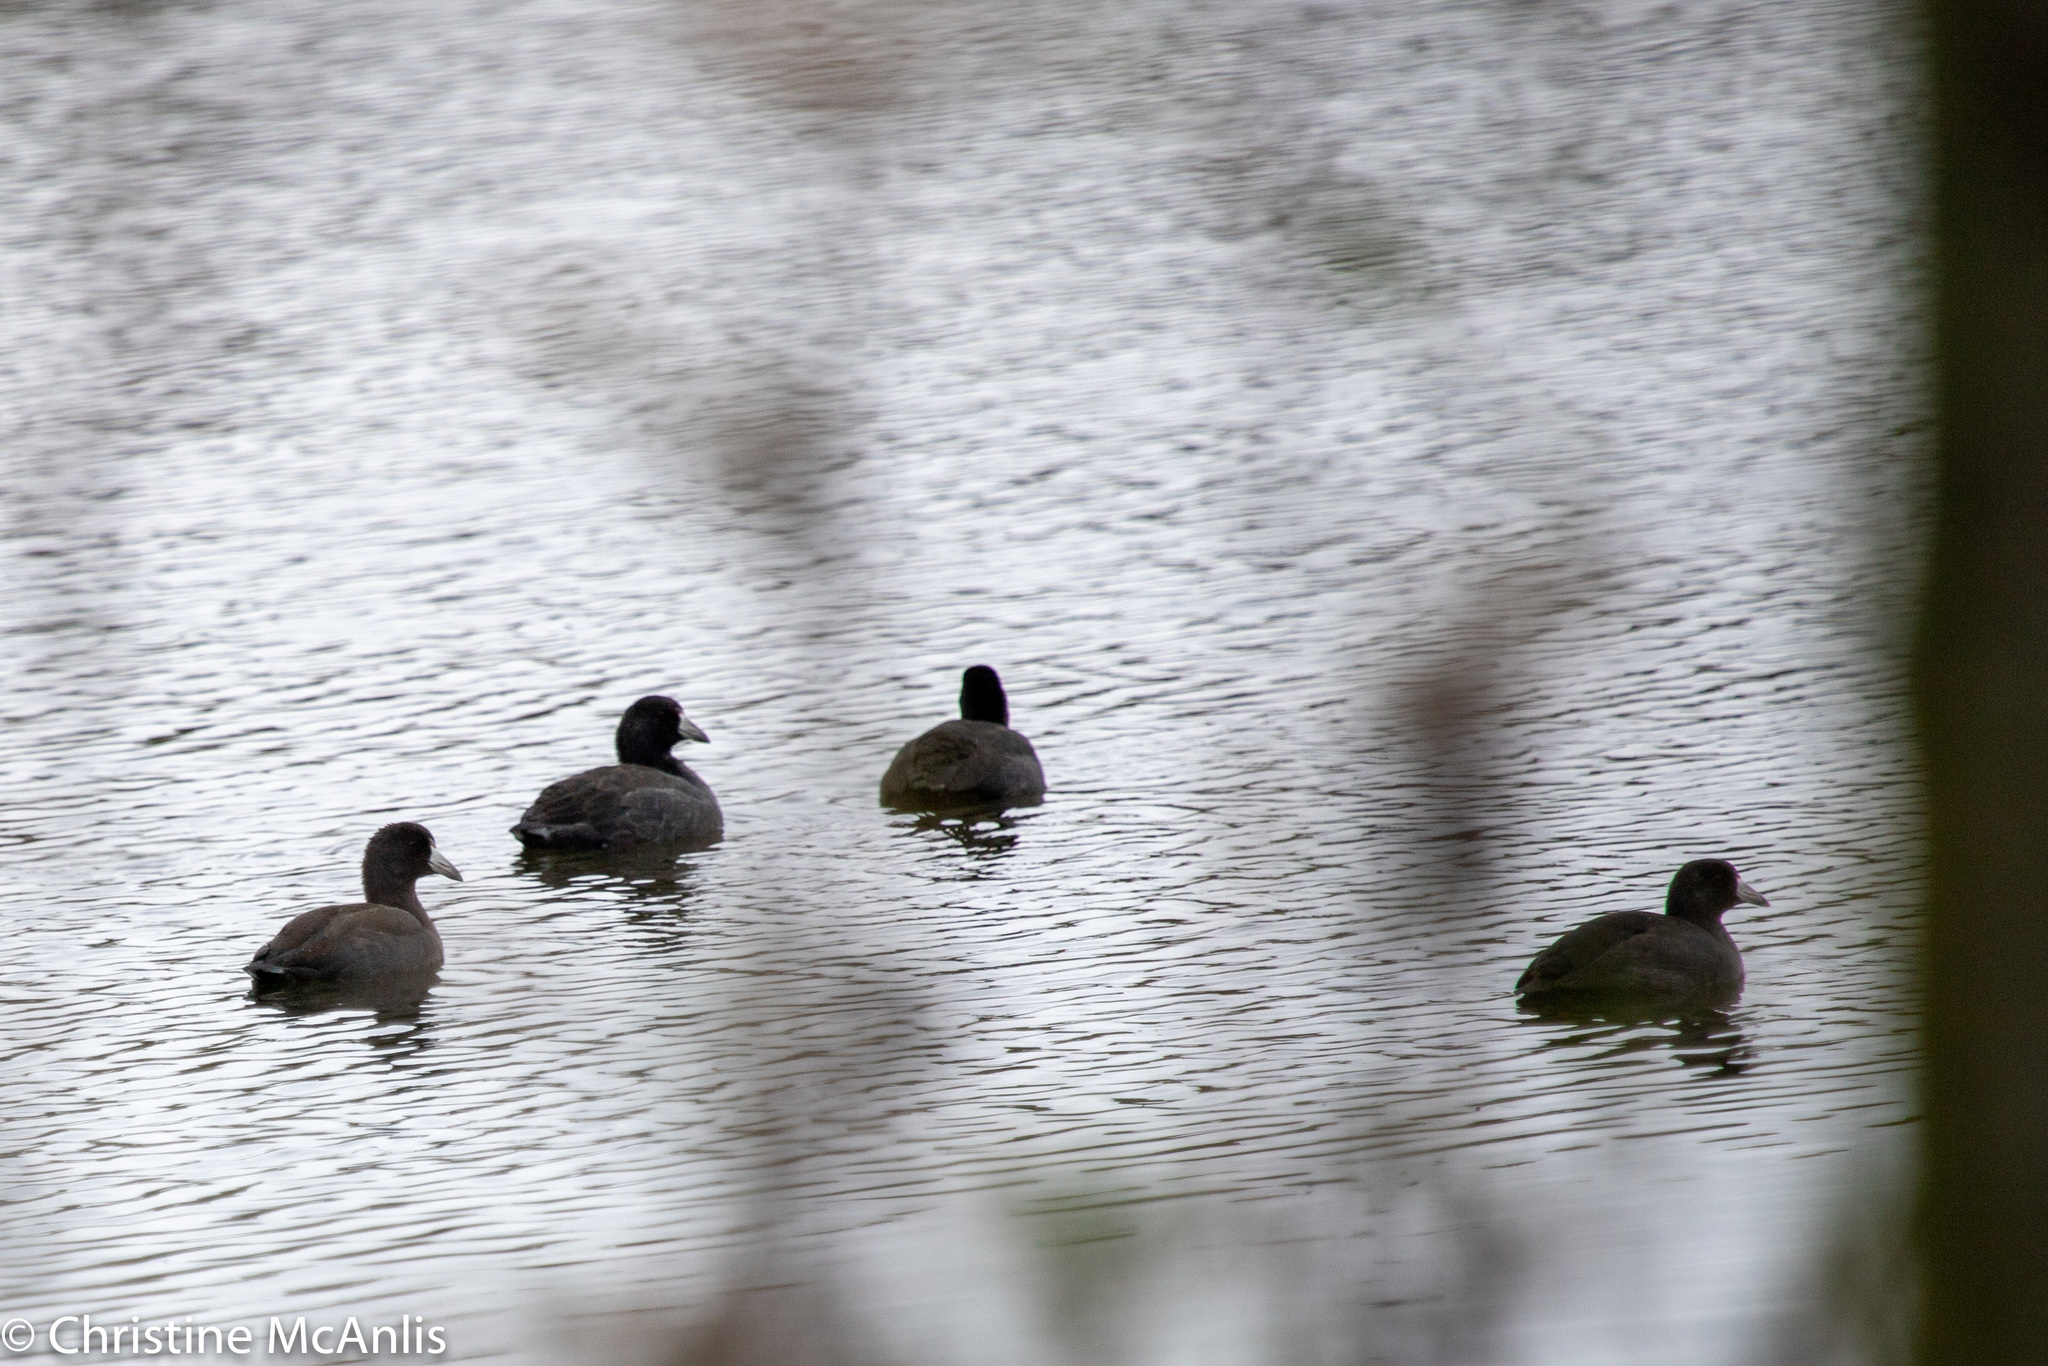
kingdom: Animalia
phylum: Chordata
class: Aves
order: Gruiformes
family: Rallidae
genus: Fulica
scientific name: Fulica americana
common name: American coot
